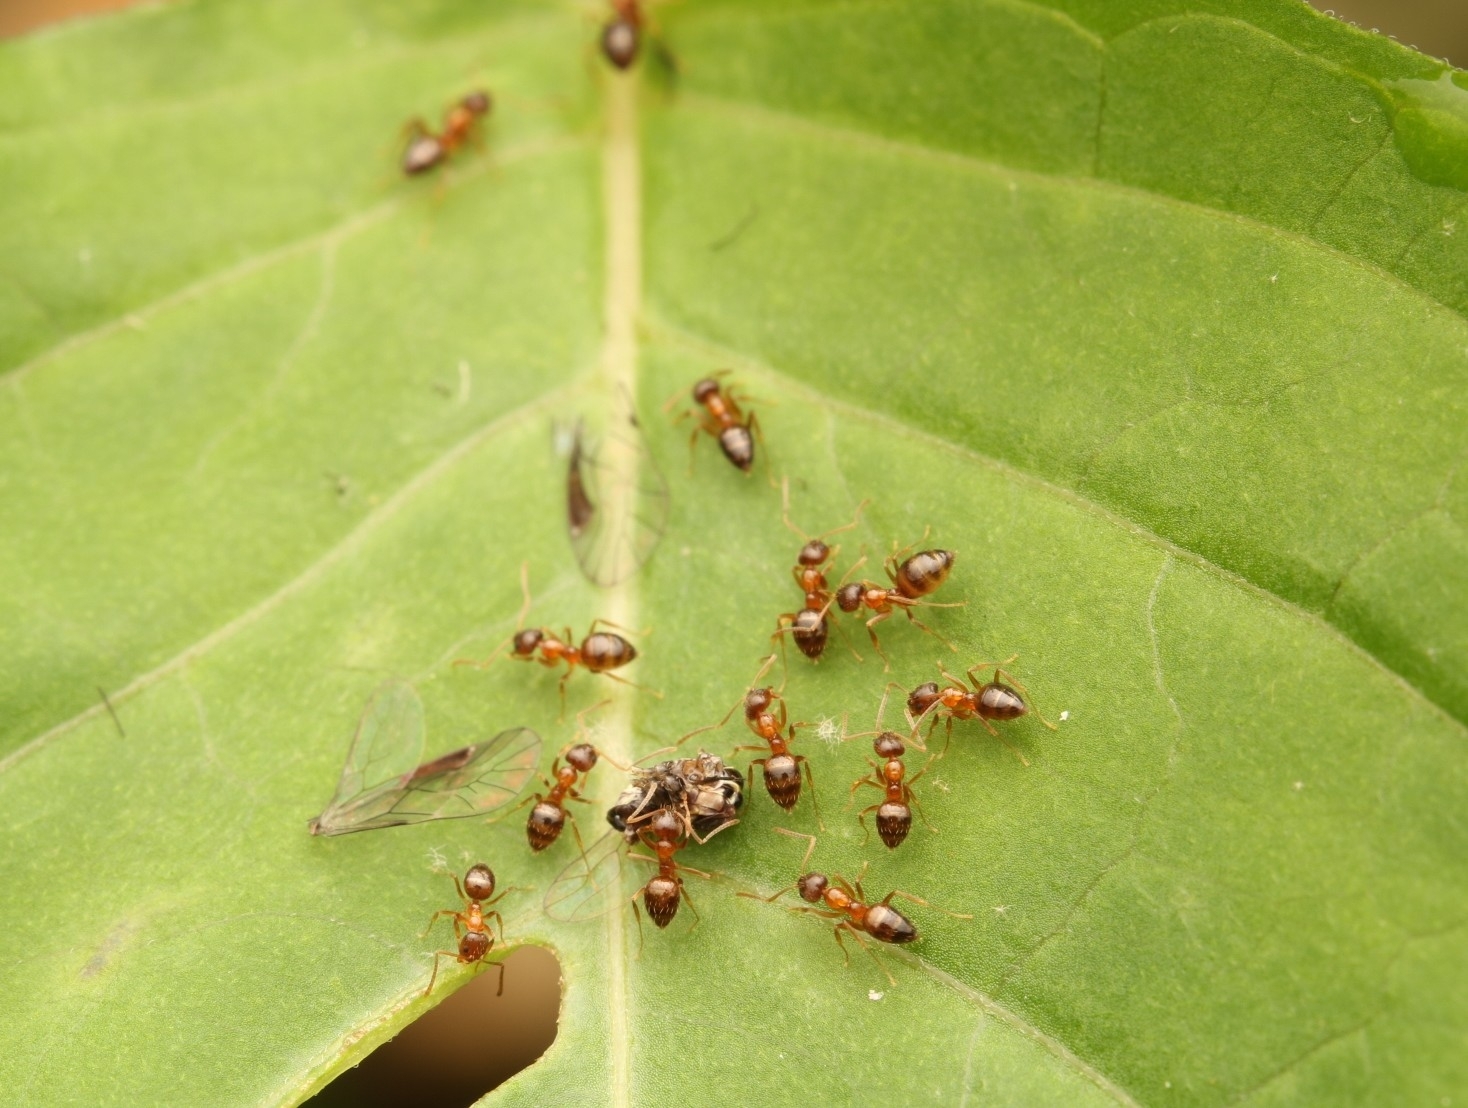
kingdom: Animalia
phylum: Arthropoda
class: Insecta
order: Hymenoptera
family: Formicidae
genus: Paratrechina
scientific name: Paratrechina flavipes
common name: Eastern asian formicine ant
